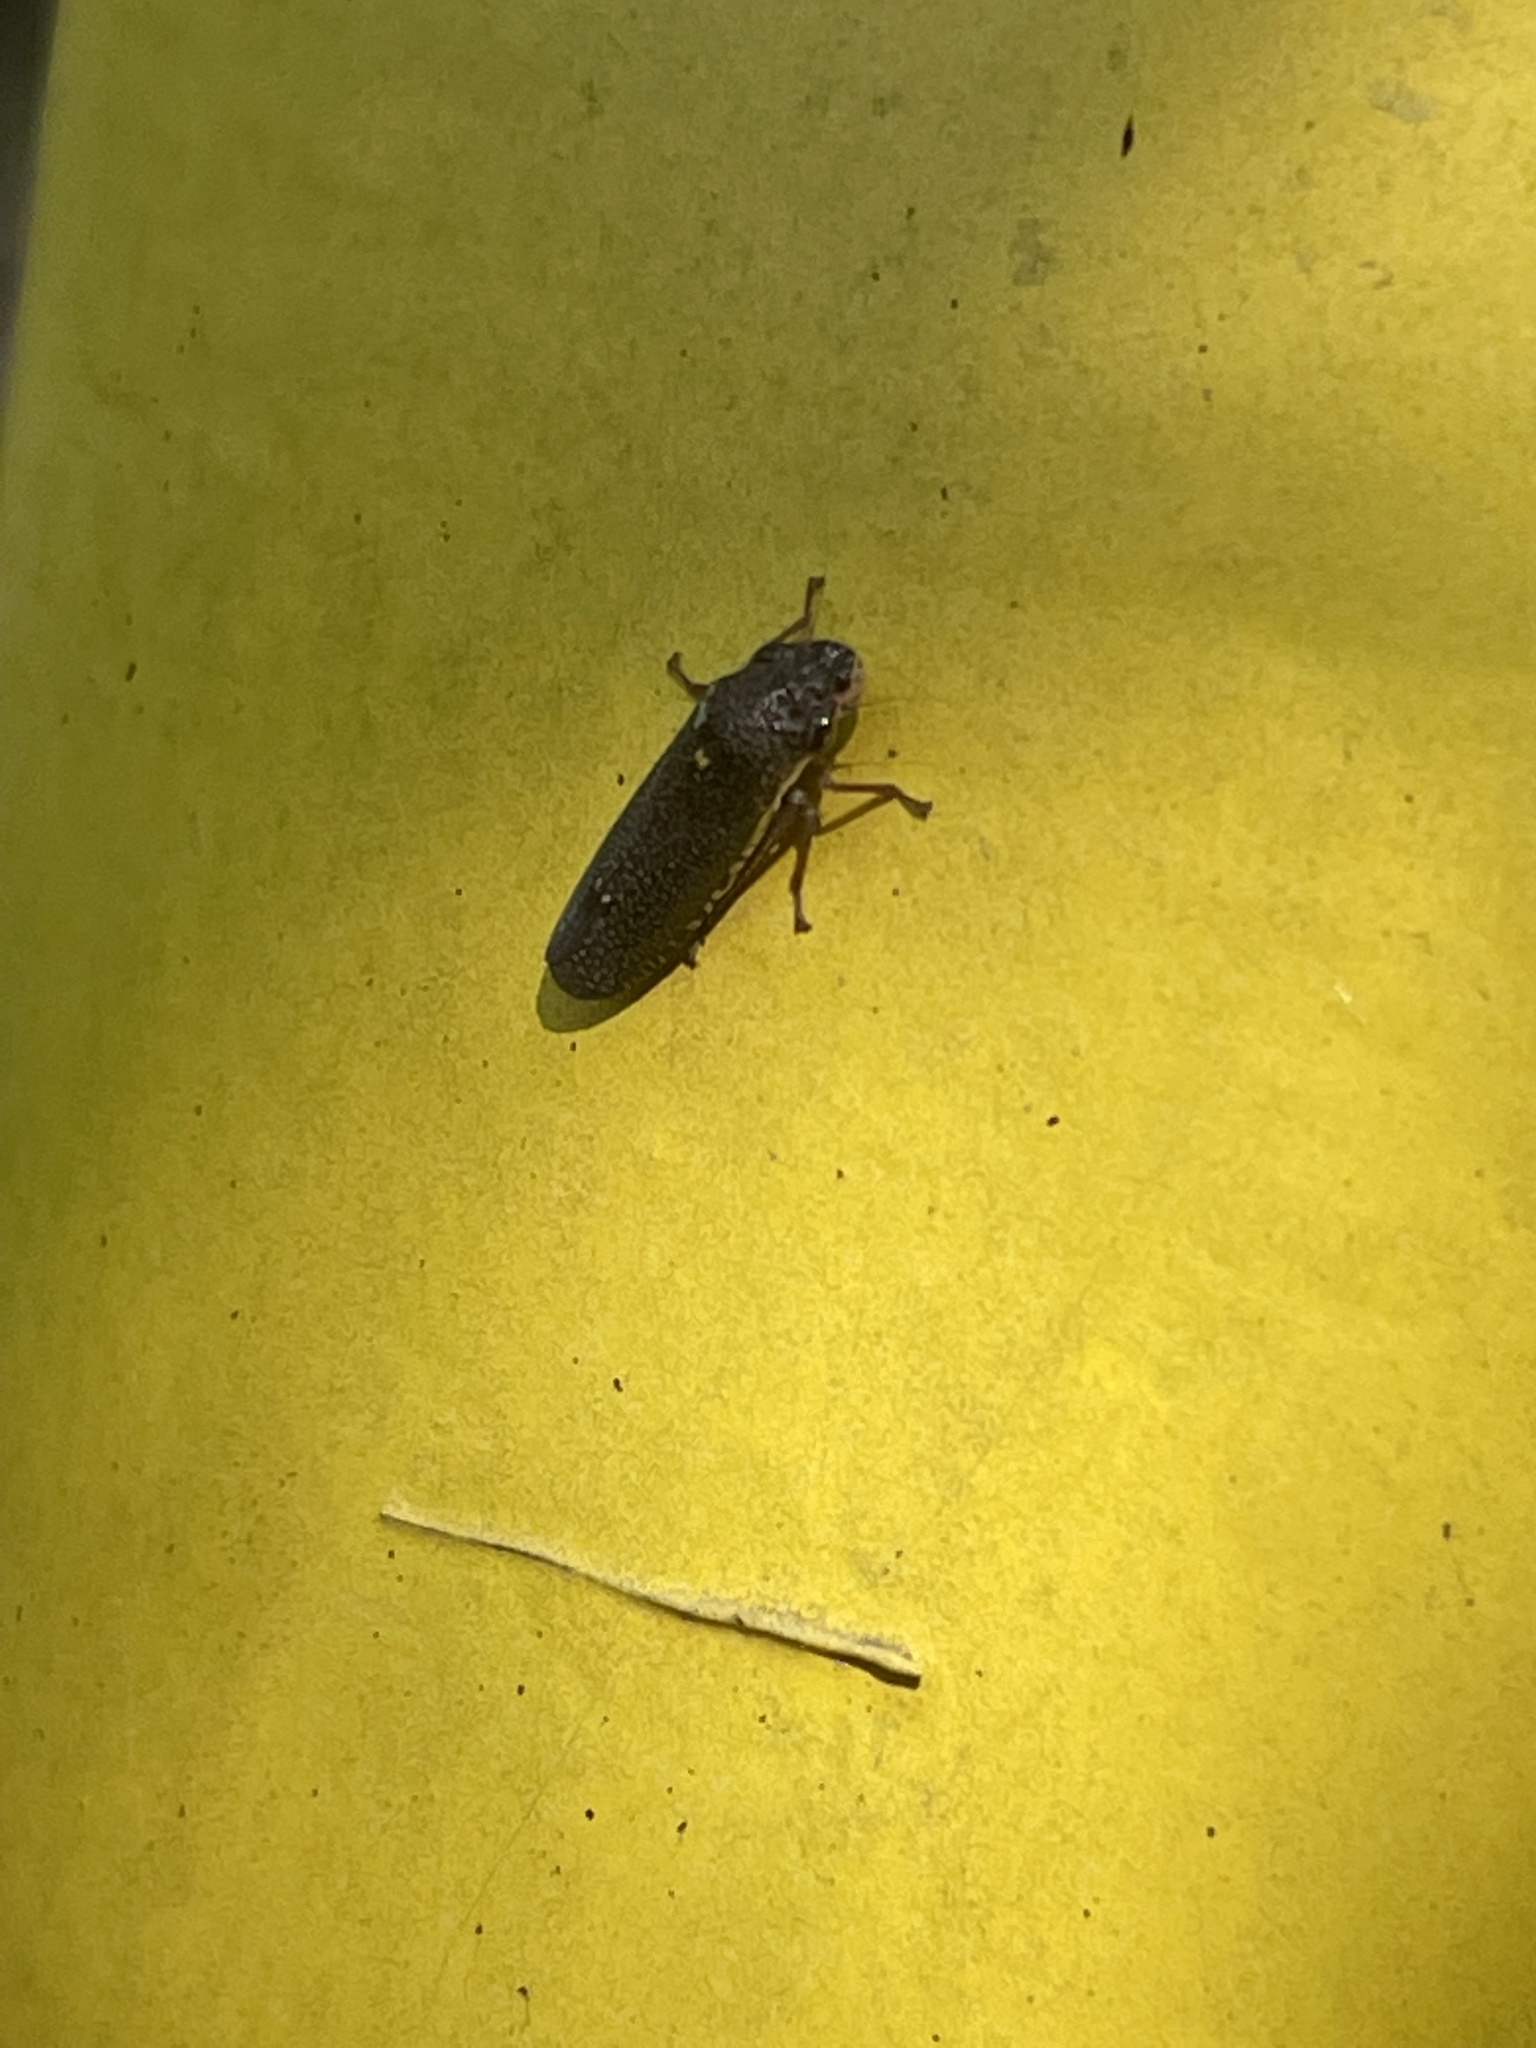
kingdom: Animalia
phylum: Arthropoda
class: Insecta
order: Hemiptera
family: Cicadellidae
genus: Paraulacizes
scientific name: Paraulacizes irrorata
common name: Speckled sharpshooter
